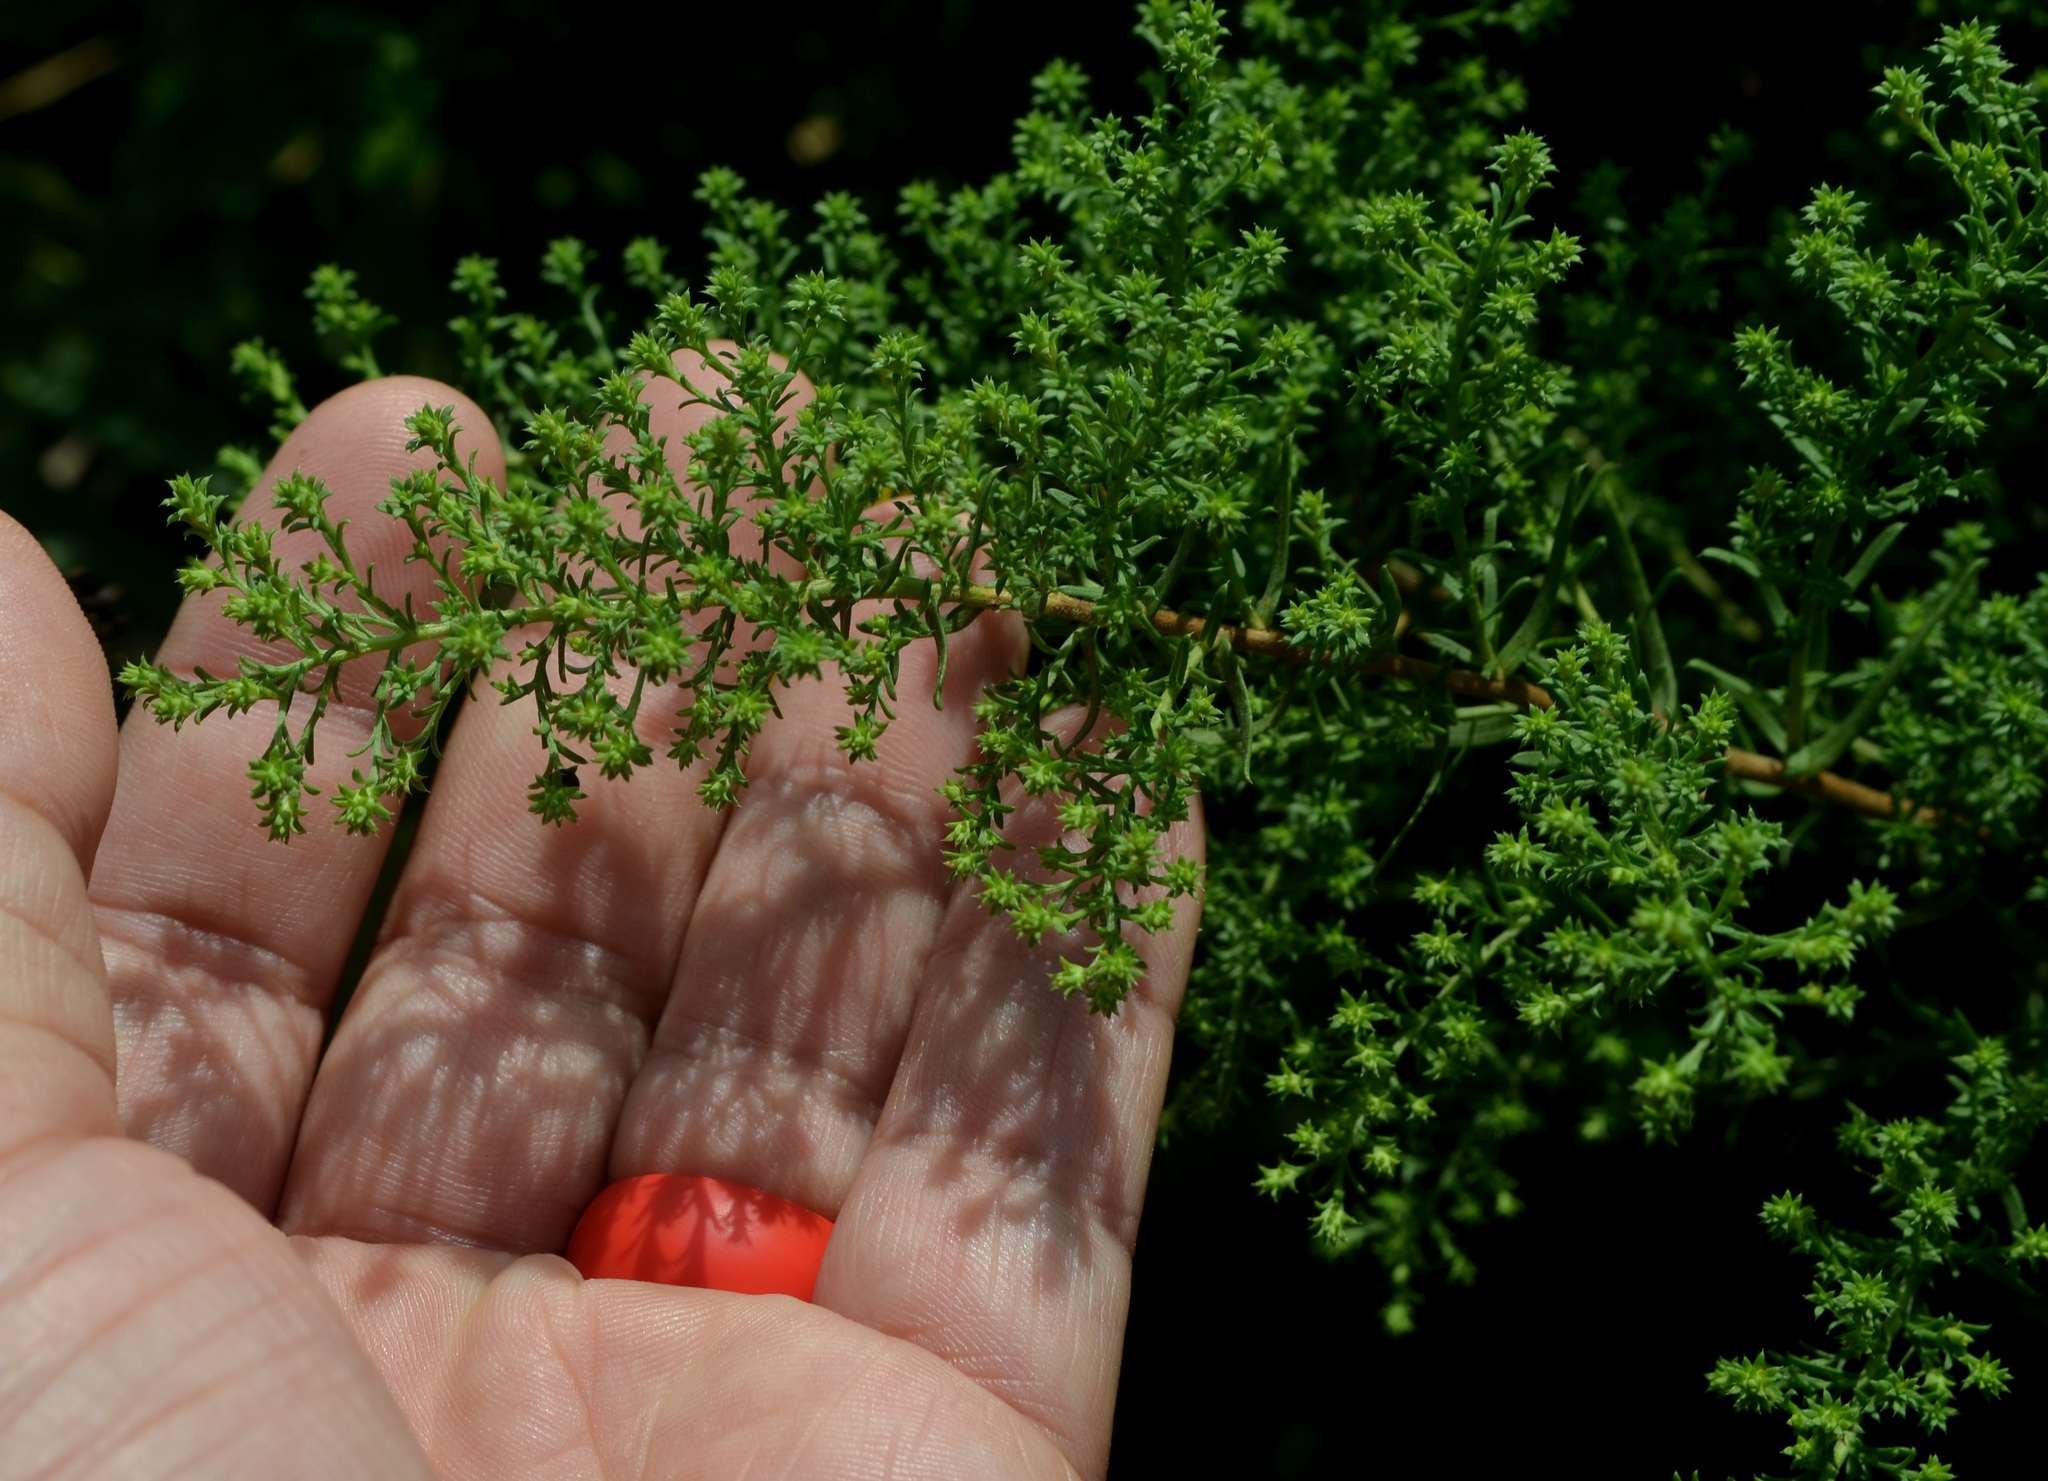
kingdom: Plantae
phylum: Tracheophyta
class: Magnoliopsida
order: Asterales
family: Asteraceae
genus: Symphyotrichum
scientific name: Symphyotrichum ericoides
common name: Heath aster
